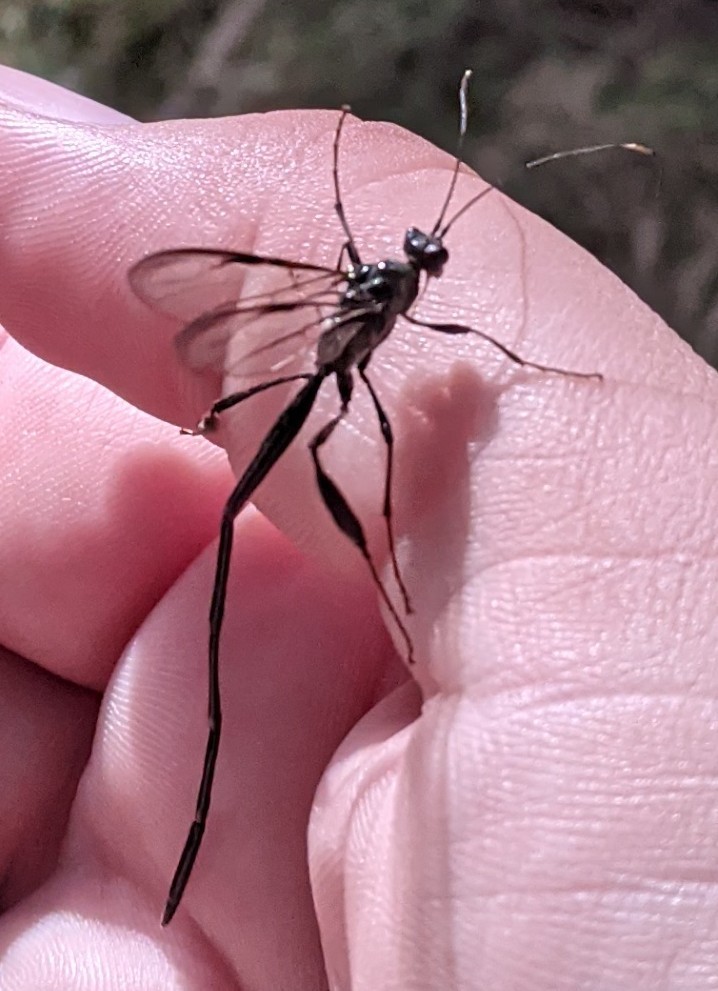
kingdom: Animalia
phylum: Arthropoda
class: Insecta
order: Hymenoptera
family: Pelecinidae
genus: Pelecinus
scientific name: Pelecinus polyturator
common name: American pelecinid wasp
